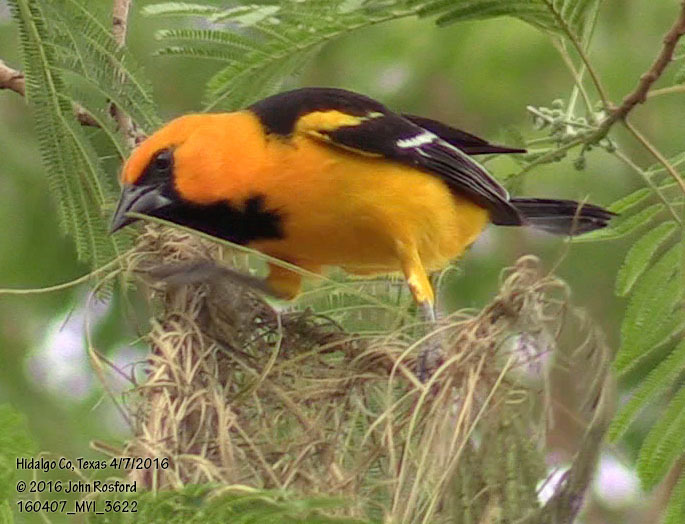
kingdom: Animalia
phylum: Chordata
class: Aves
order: Passeriformes
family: Icteridae
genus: Icterus
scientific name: Icterus gularis
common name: Altamira oriole
